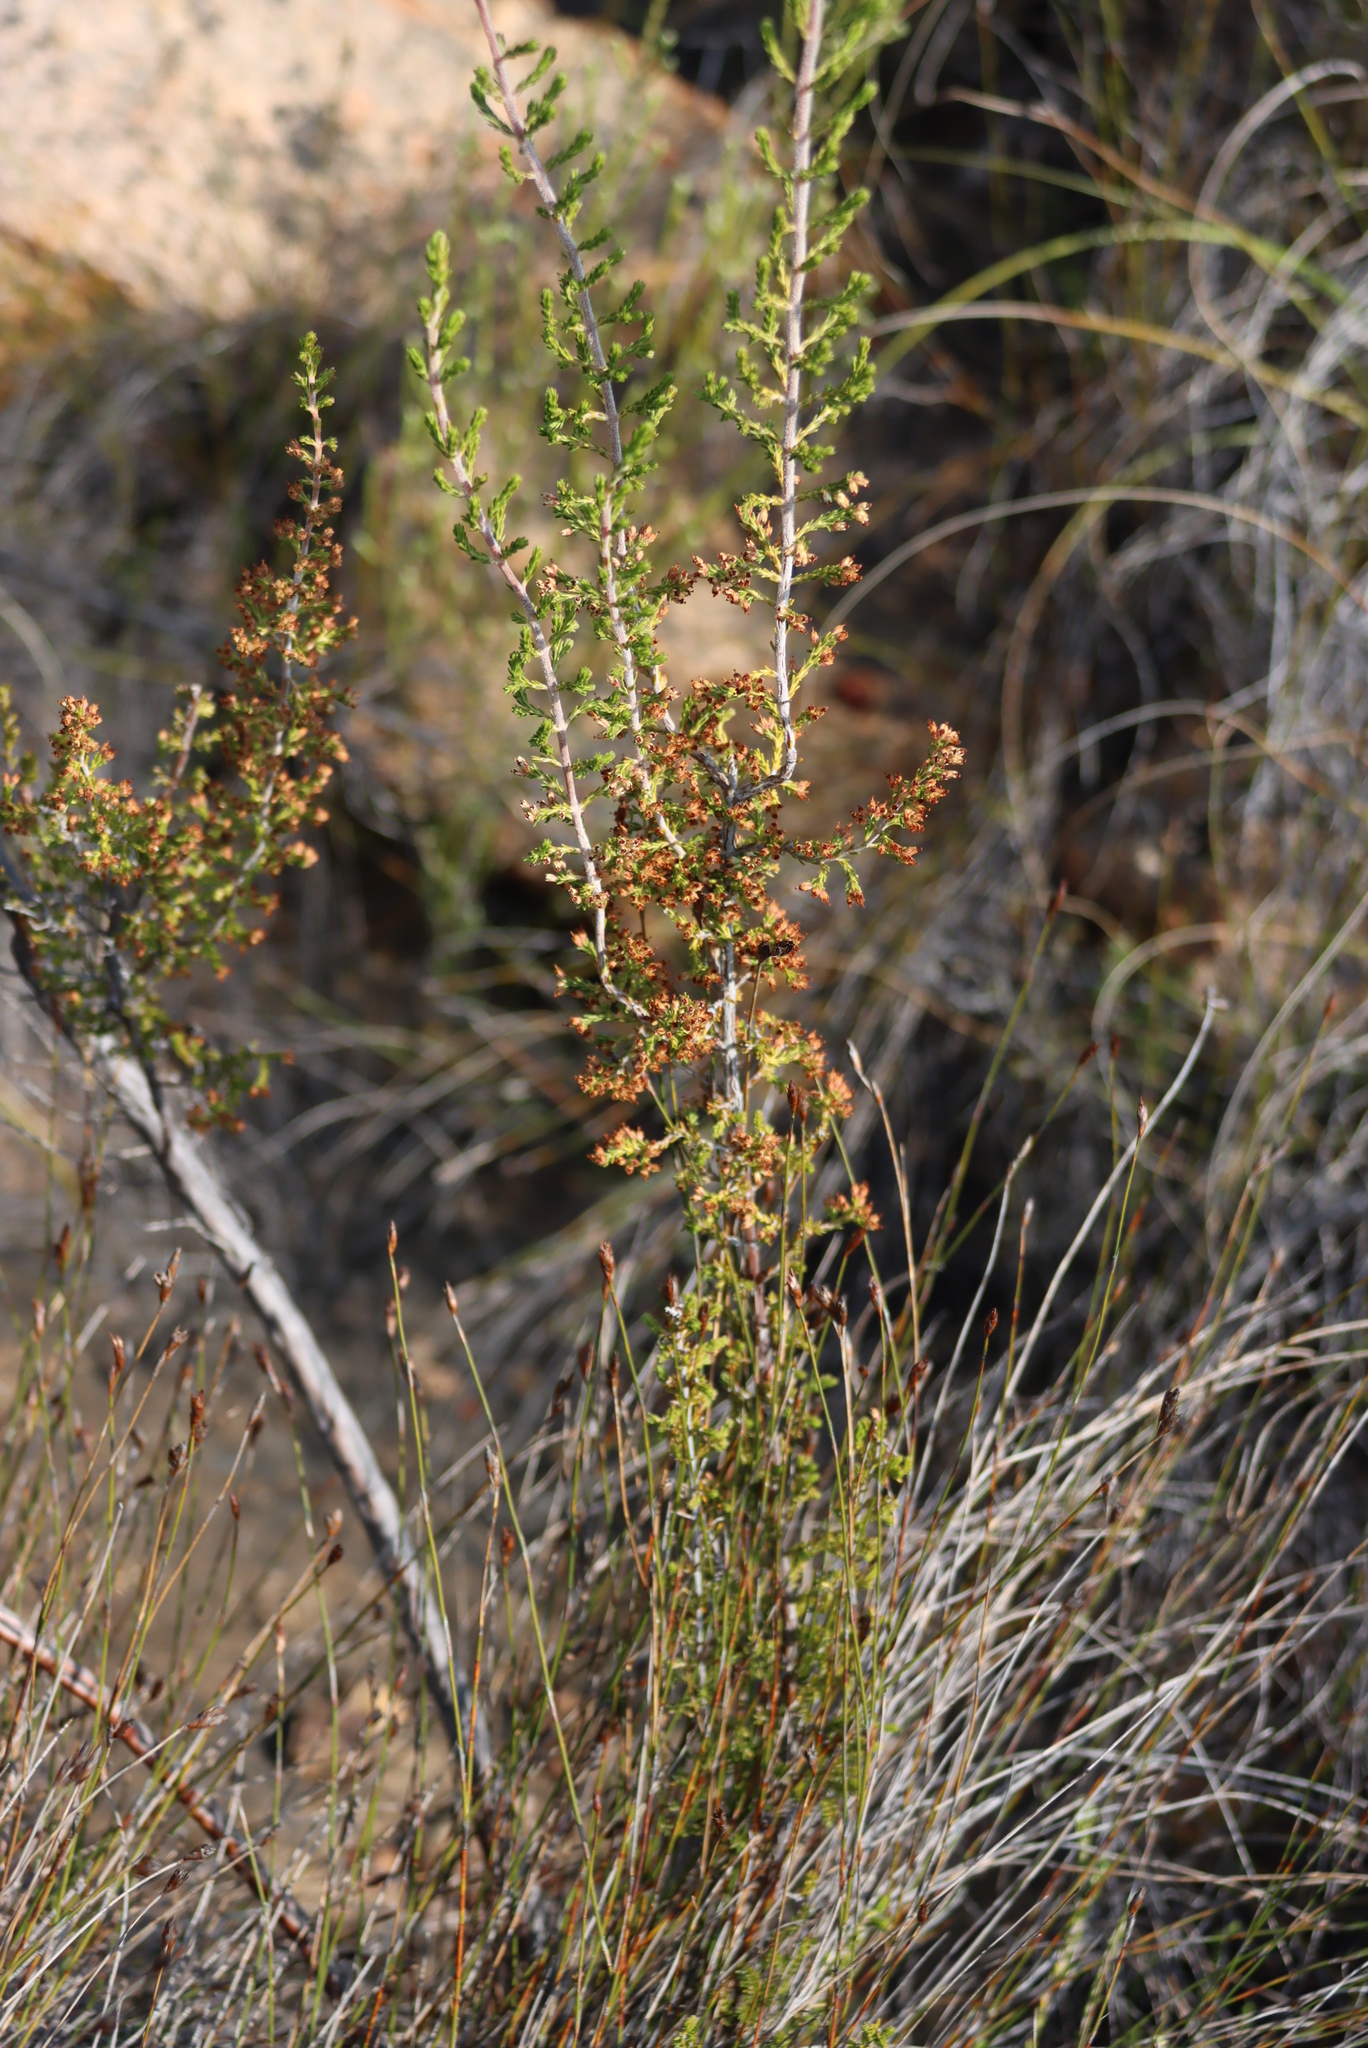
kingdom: Plantae
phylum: Tracheophyta
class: Magnoliopsida
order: Ericales
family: Ericaceae
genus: Erica
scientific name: Erica lepidota
